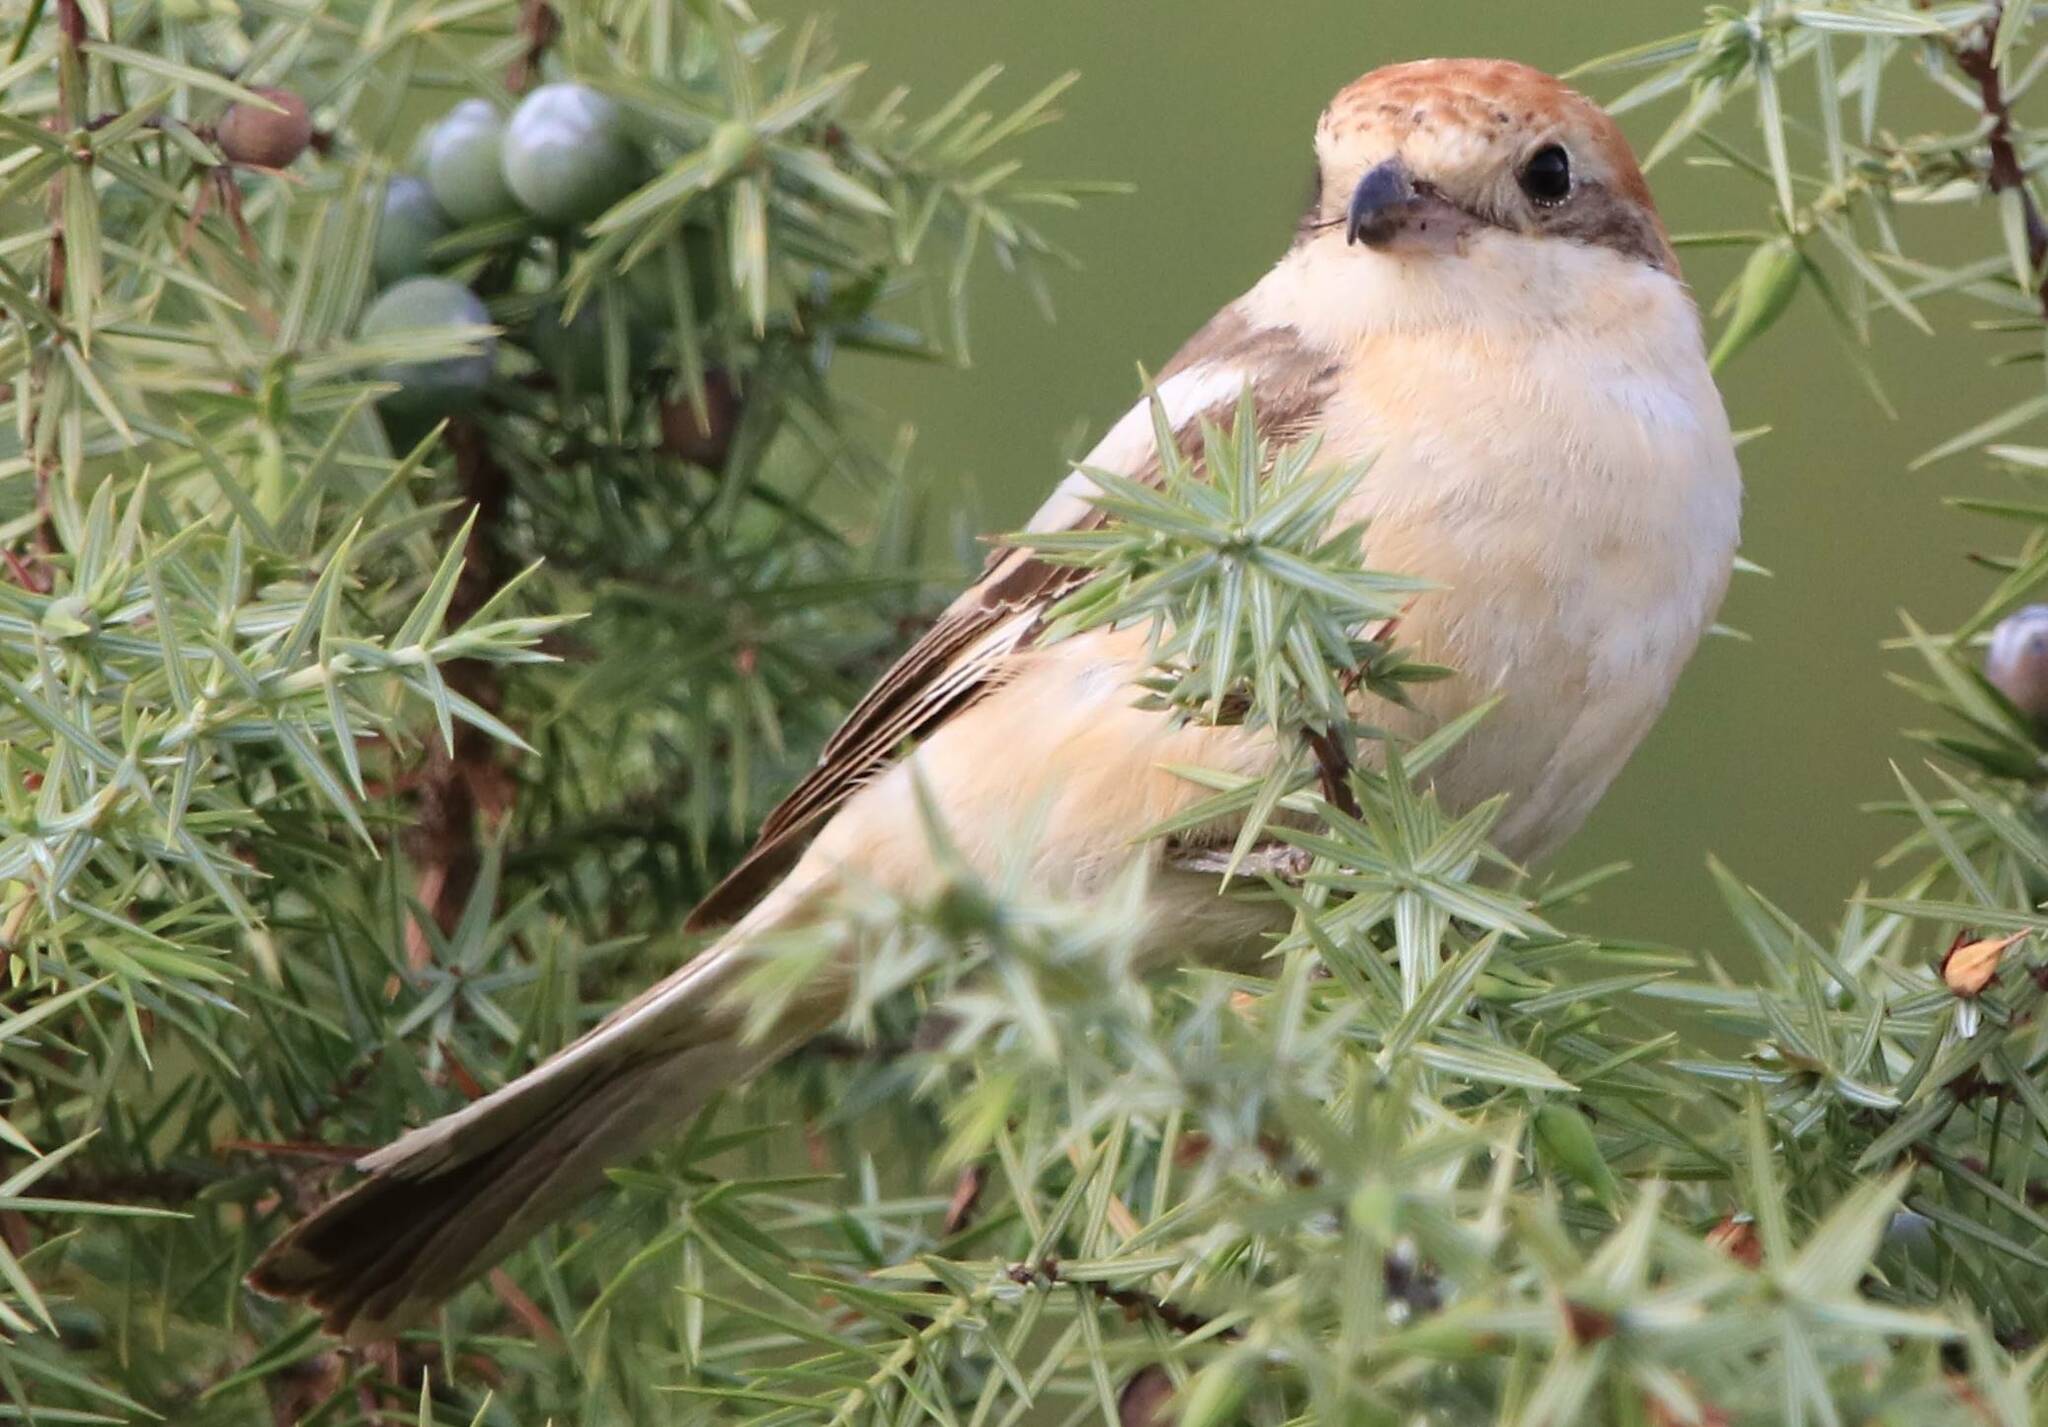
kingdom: Animalia
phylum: Chordata
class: Aves
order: Passeriformes
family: Laniidae
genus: Lanius
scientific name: Lanius senator
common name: Woodchat shrike
